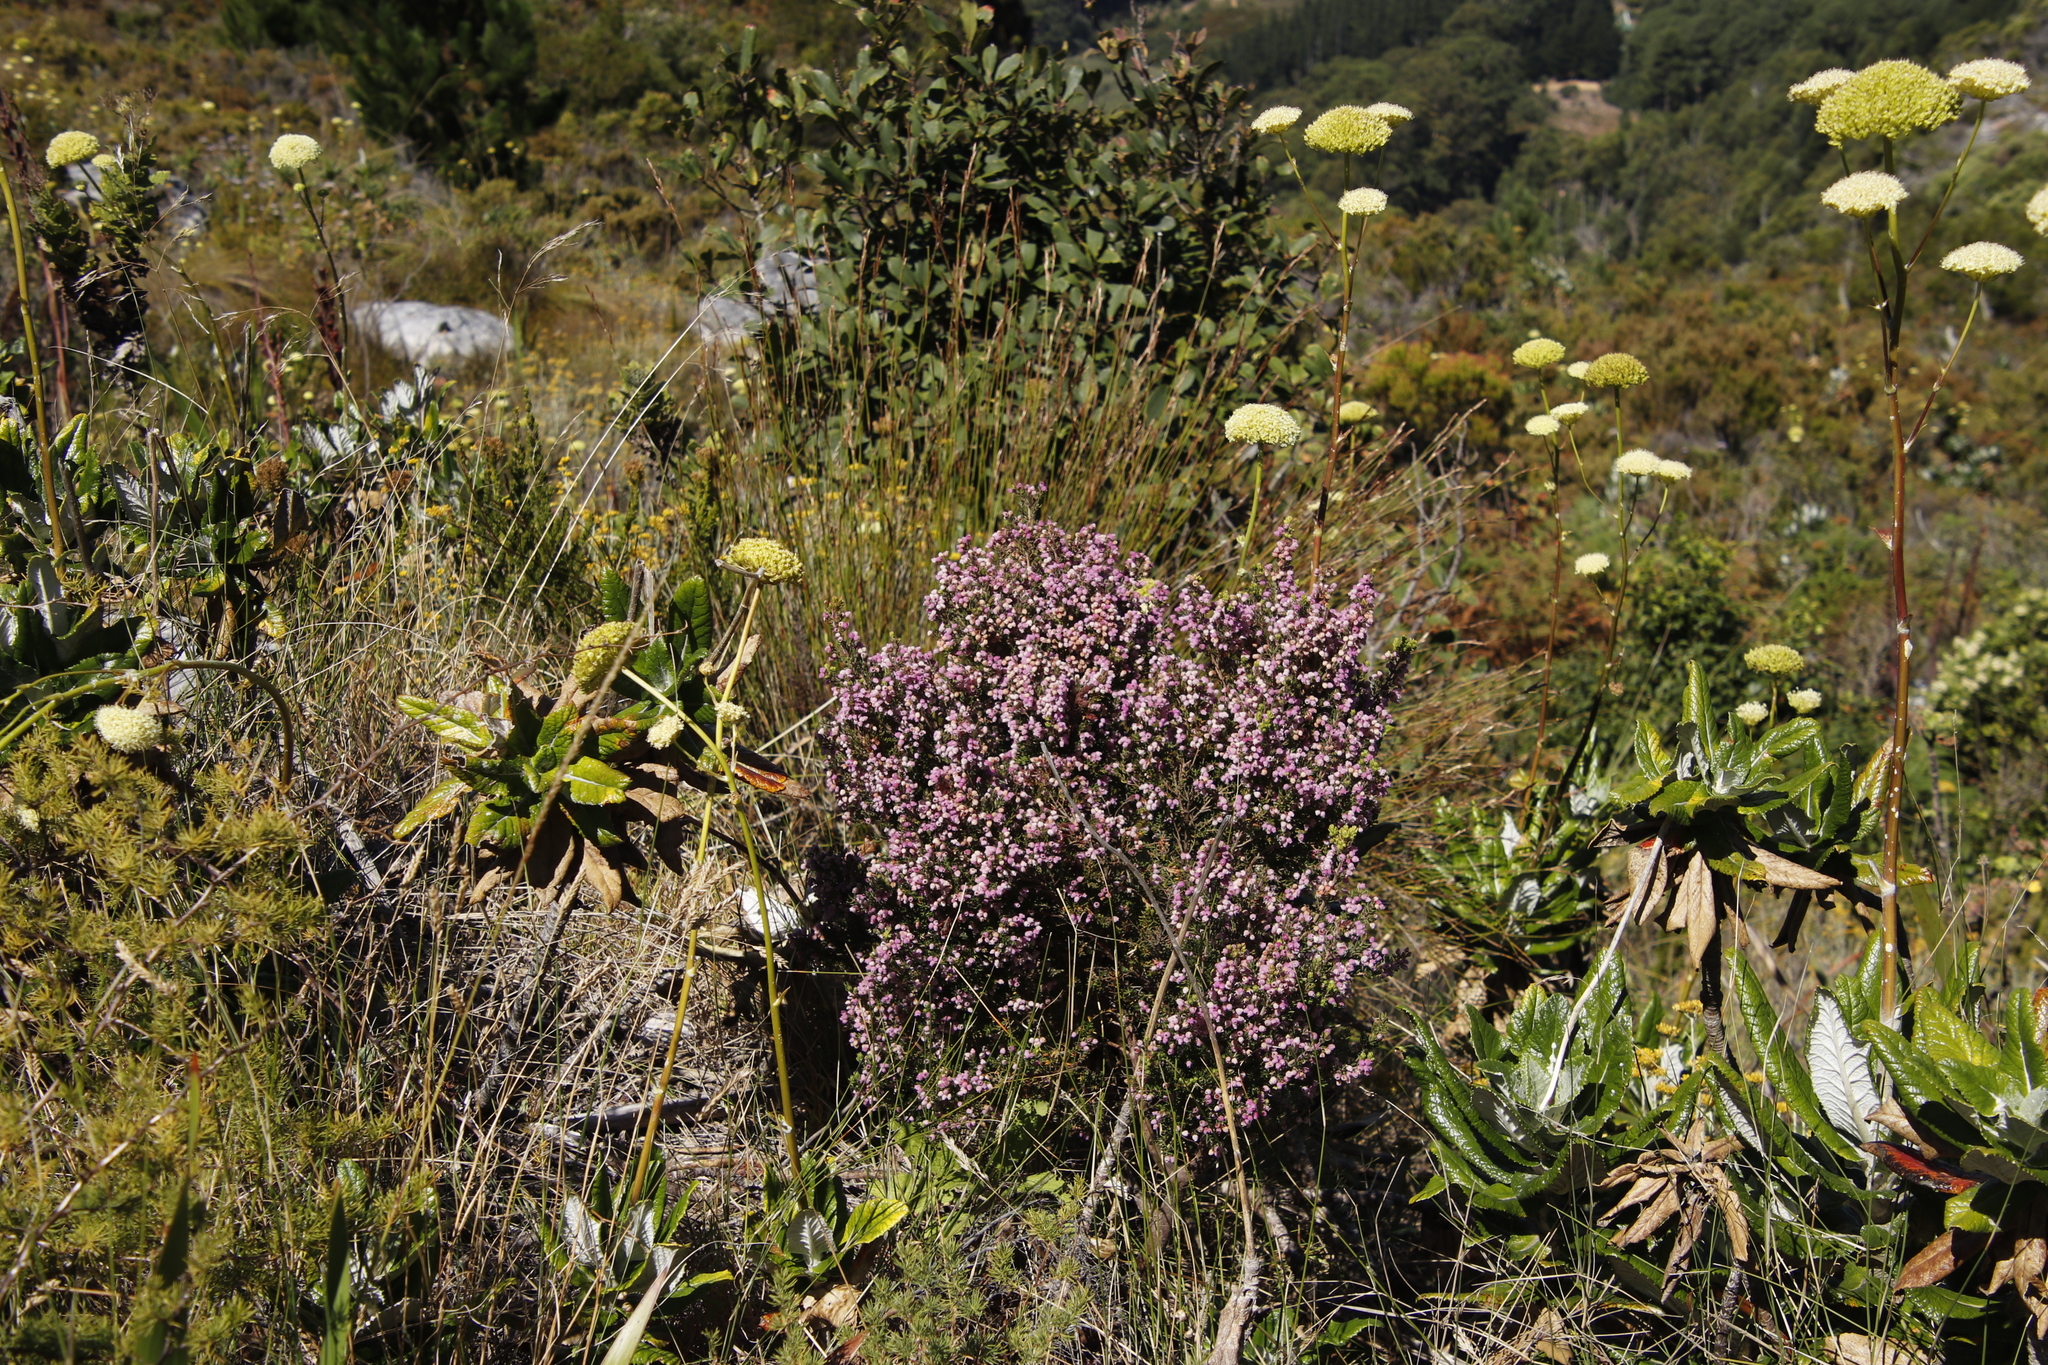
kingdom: Plantae
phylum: Tracheophyta
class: Magnoliopsida
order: Ericales
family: Ericaceae
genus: Erica
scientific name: Erica hirtiflora
